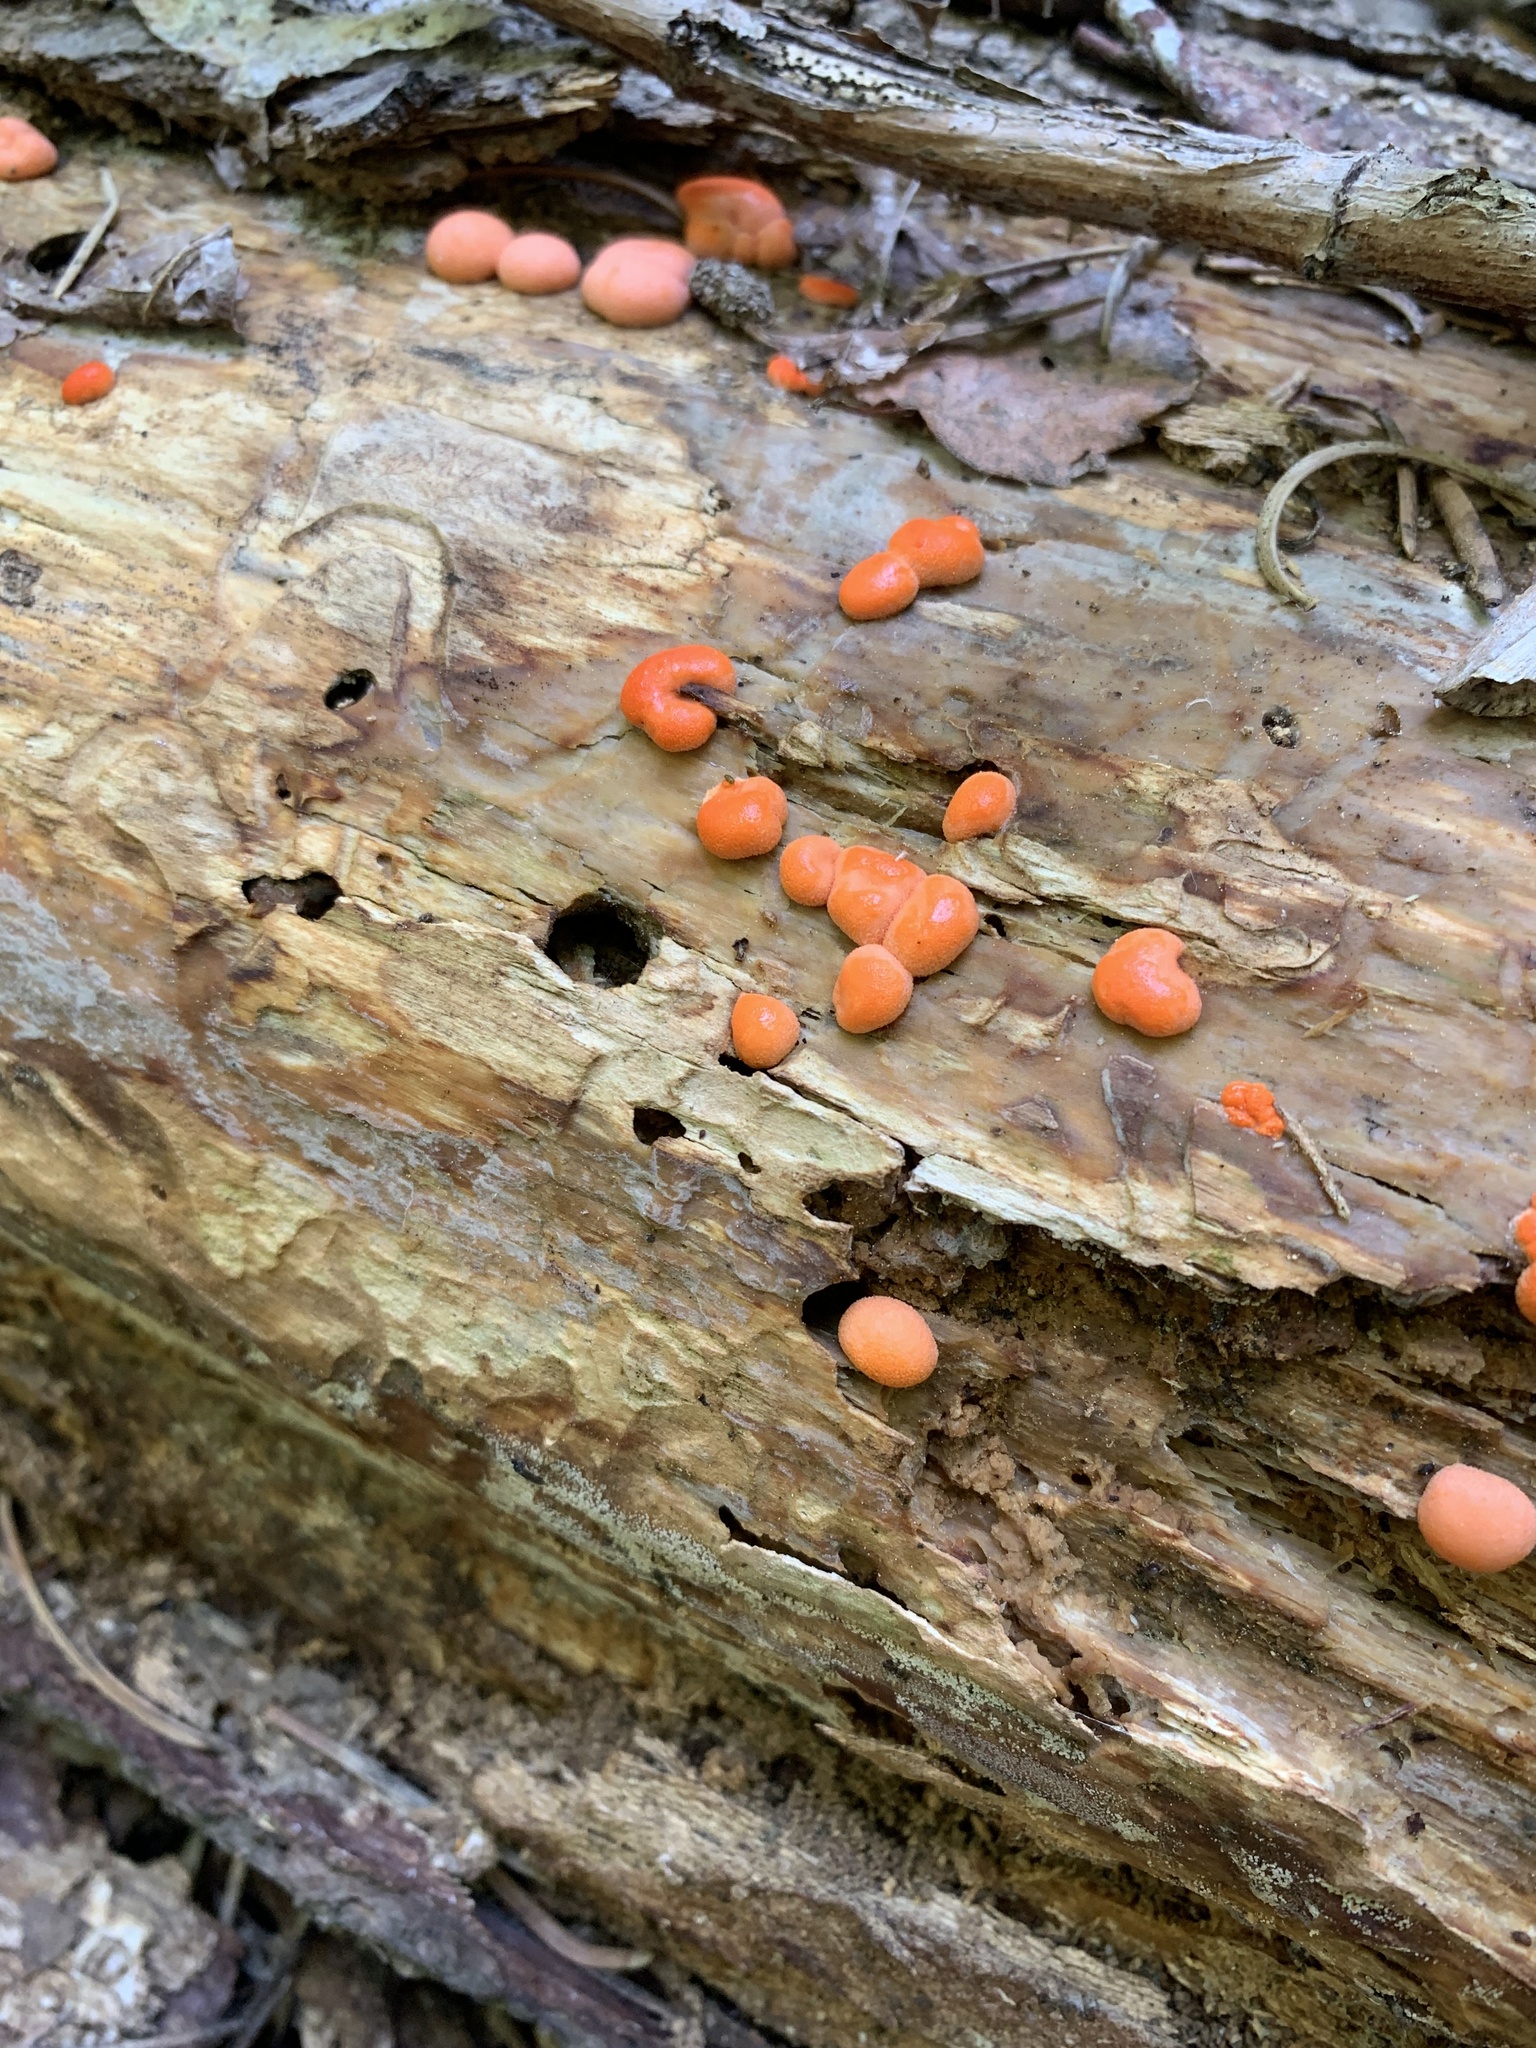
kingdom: Protozoa
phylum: Mycetozoa
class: Myxomycetes
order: Cribrariales
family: Tubiferaceae
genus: Lycogala
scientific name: Lycogala epidendrum
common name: Wolf's milk
